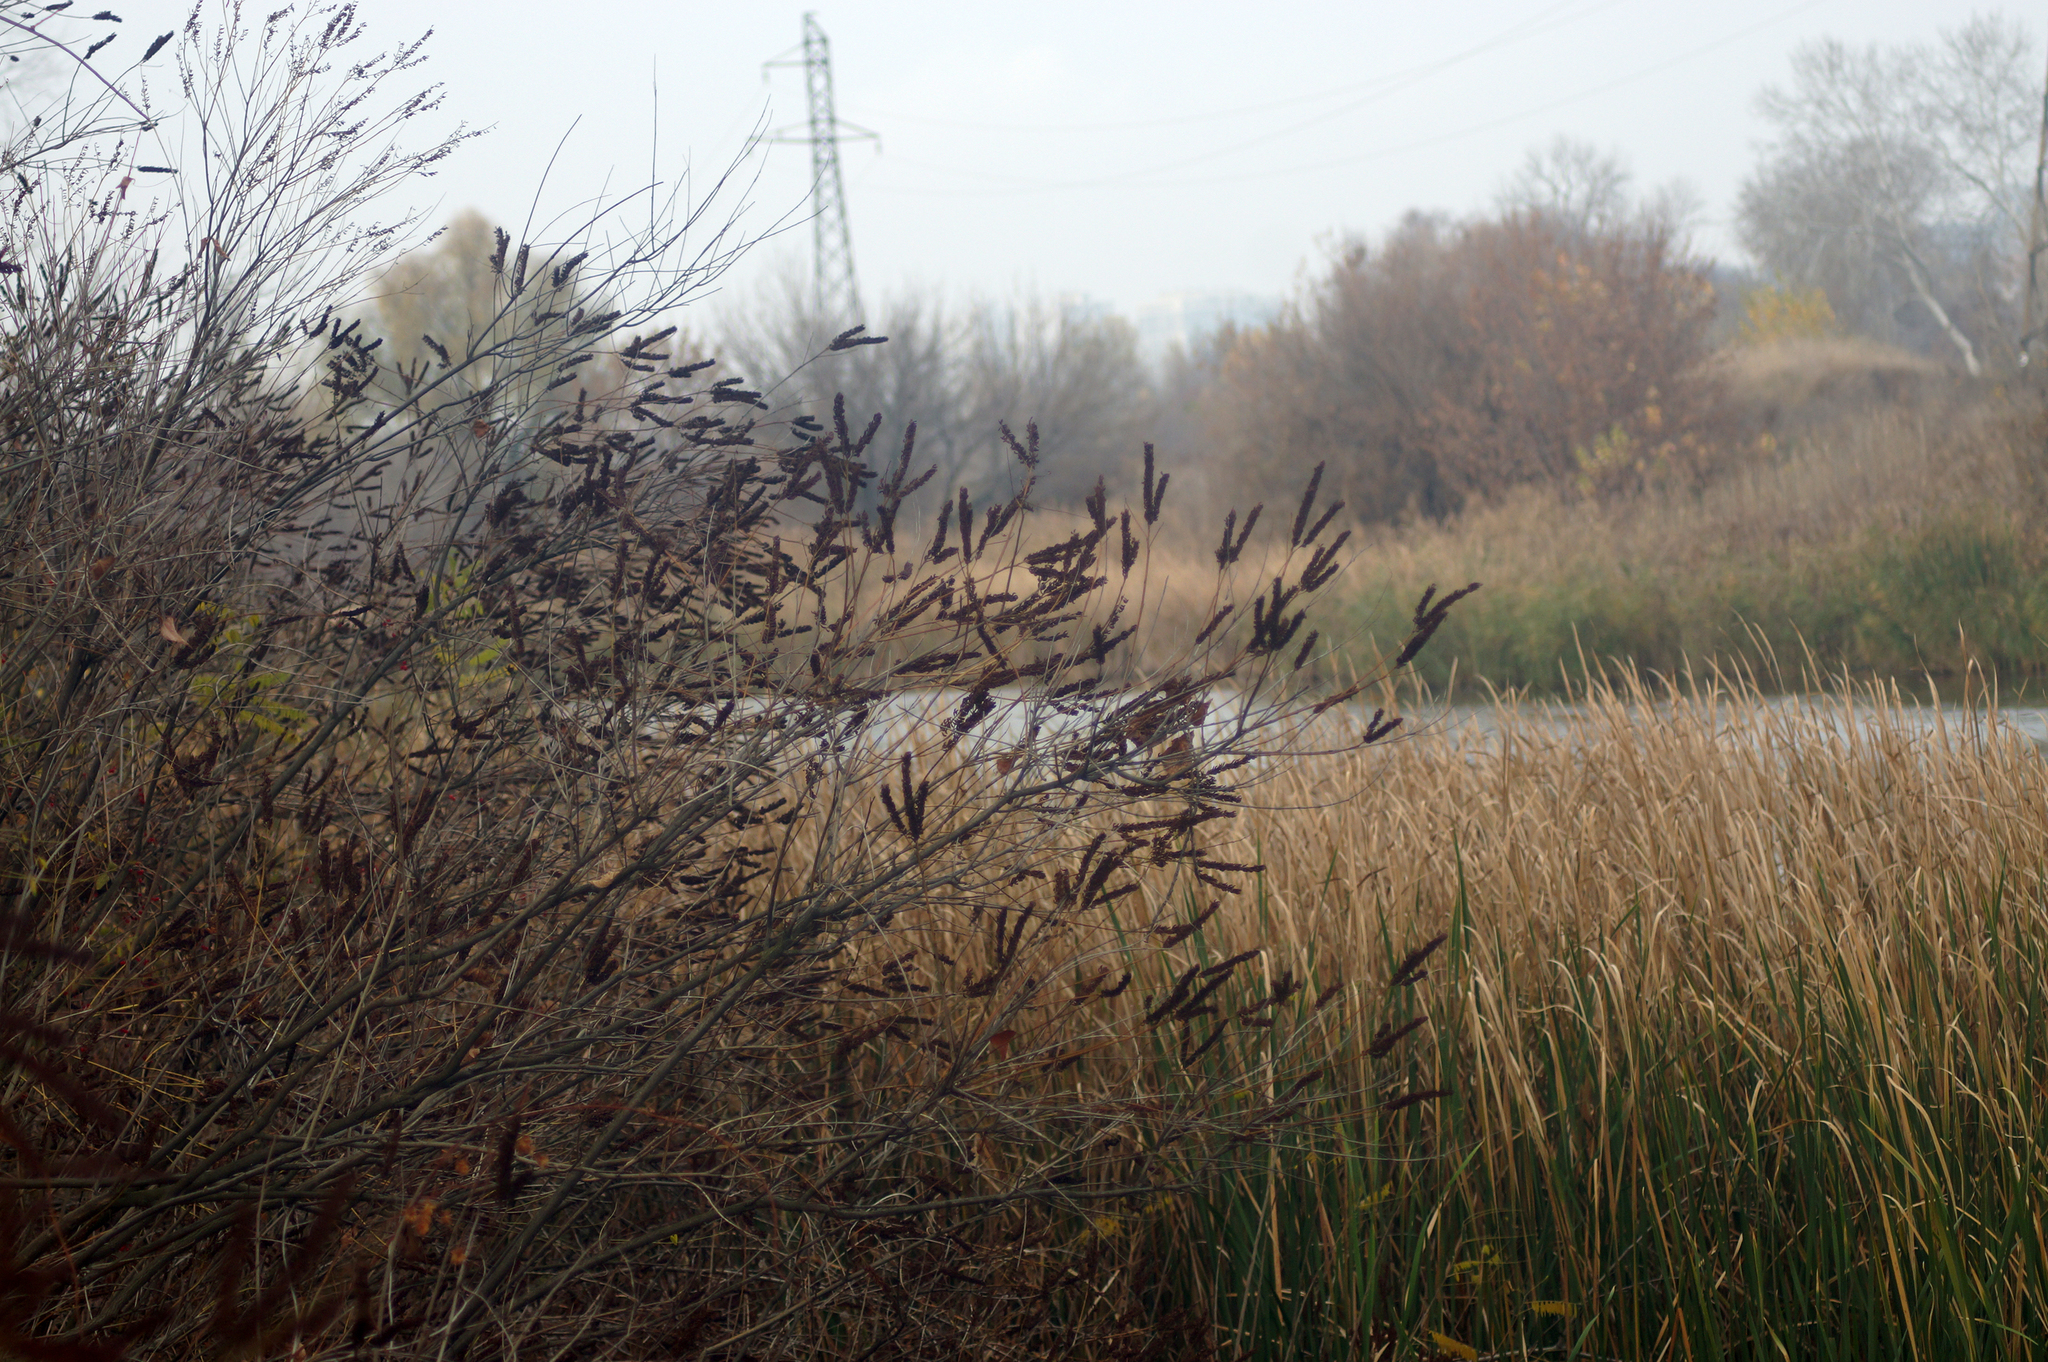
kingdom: Plantae
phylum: Tracheophyta
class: Magnoliopsida
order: Fabales
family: Fabaceae
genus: Amorpha
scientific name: Amorpha fruticosa
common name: False indigo
